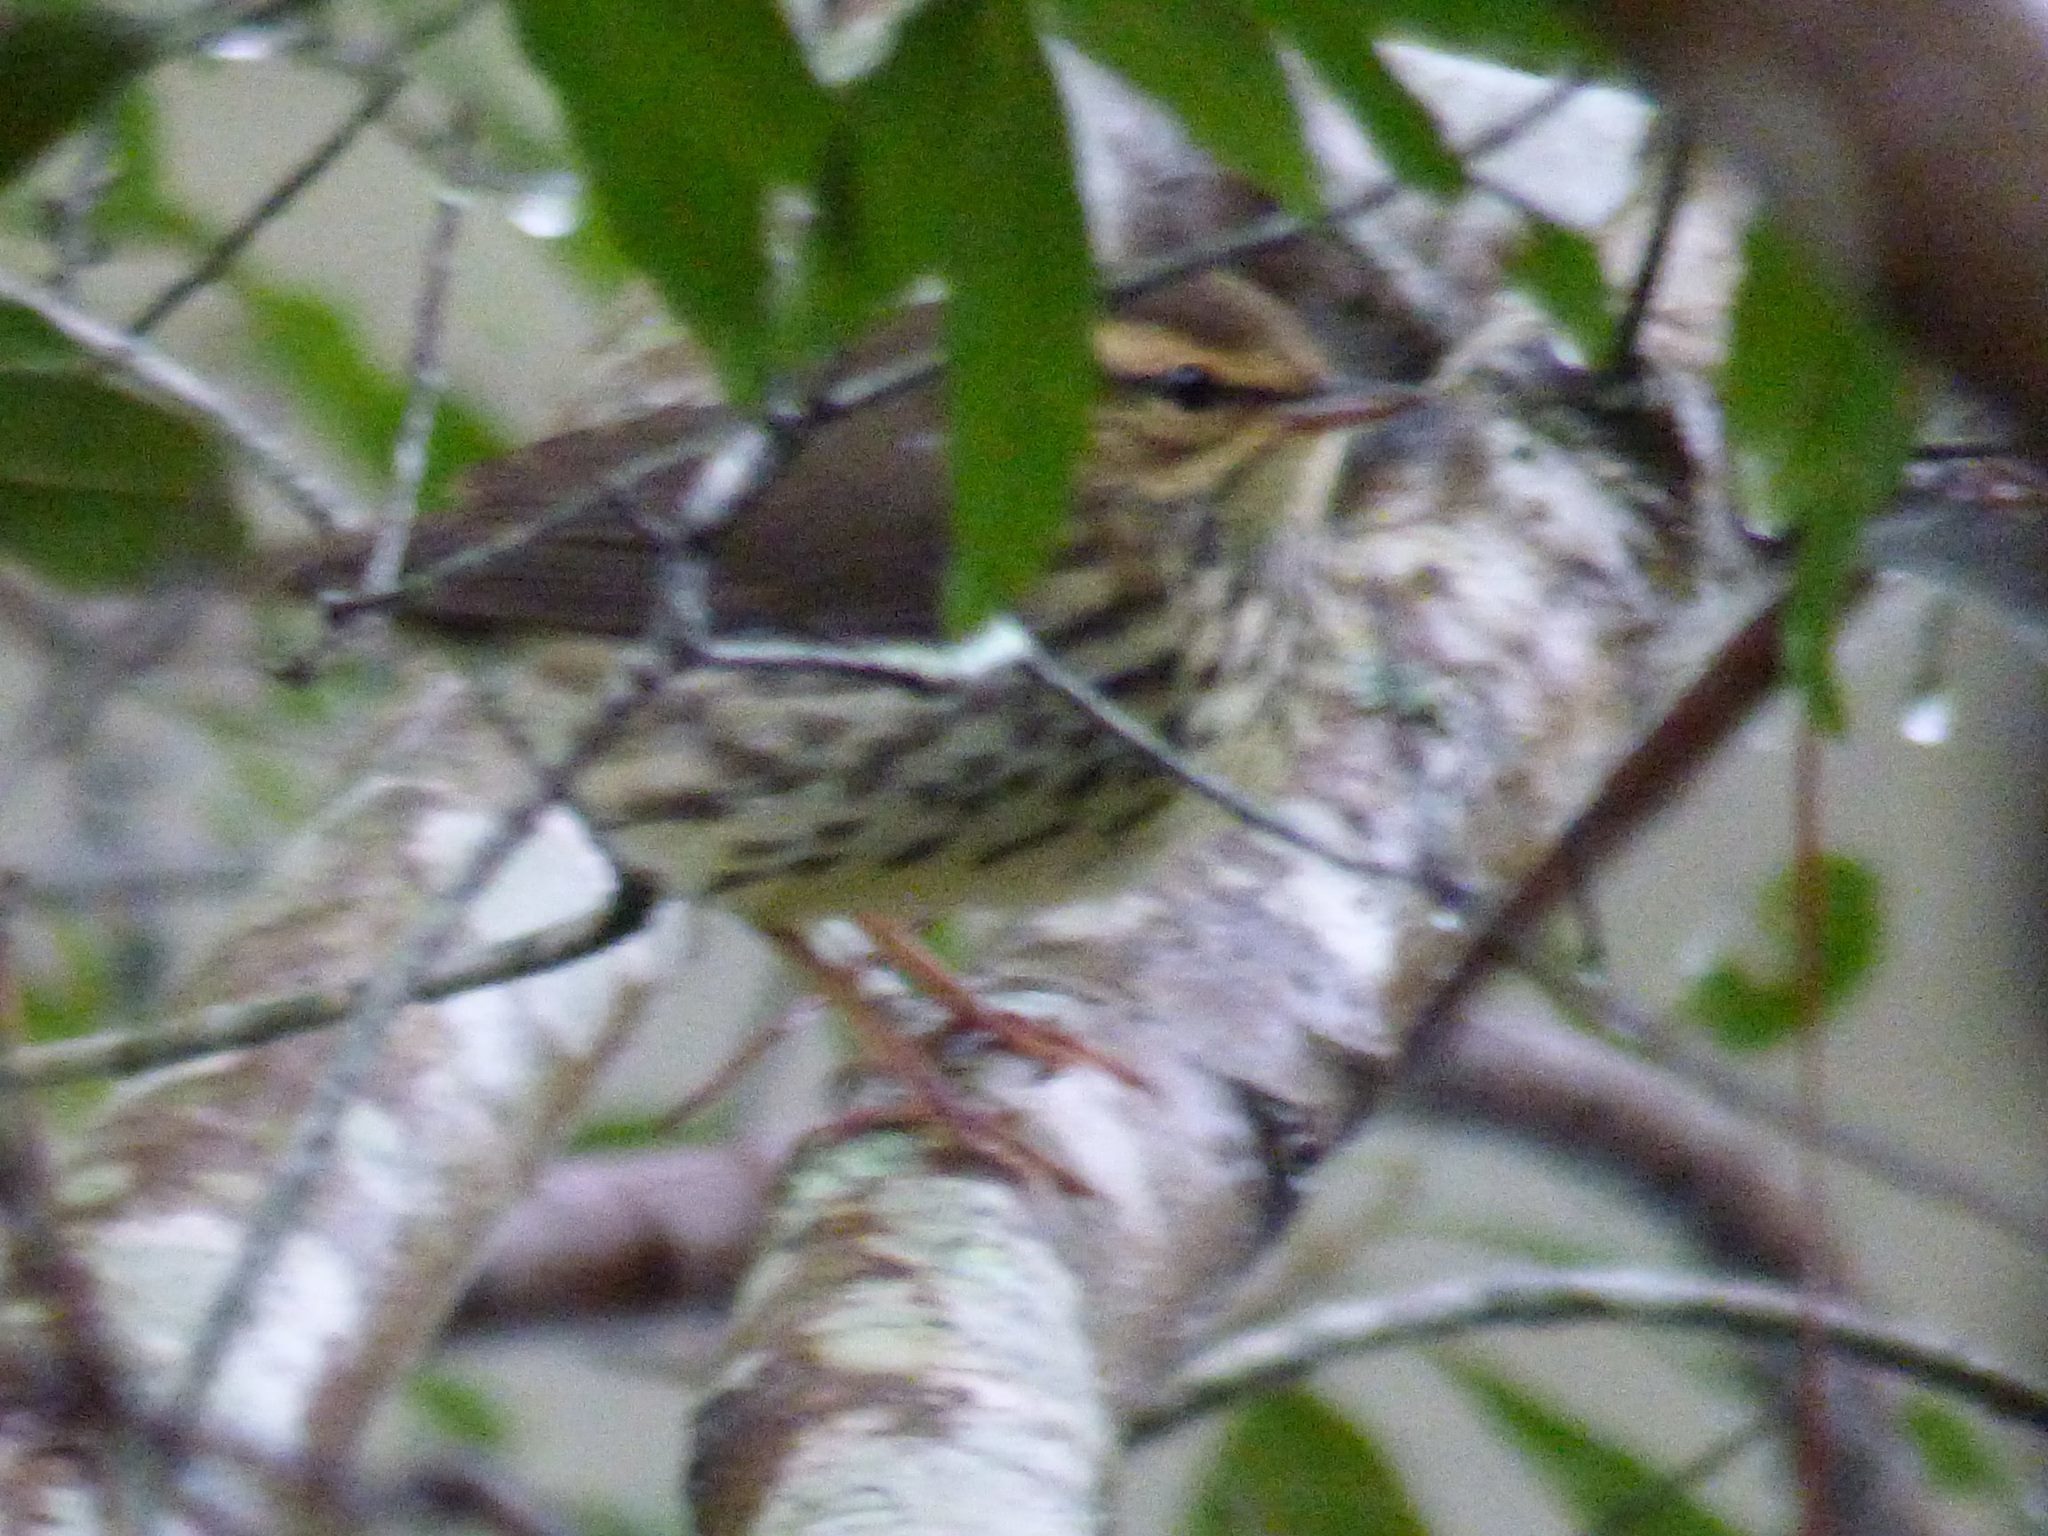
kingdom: Animalia
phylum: Chordata
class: Aves
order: Passeriformes
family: Parulidae
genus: Parkesia
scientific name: Parkesia noveboracensis
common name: Northern waterthrush
